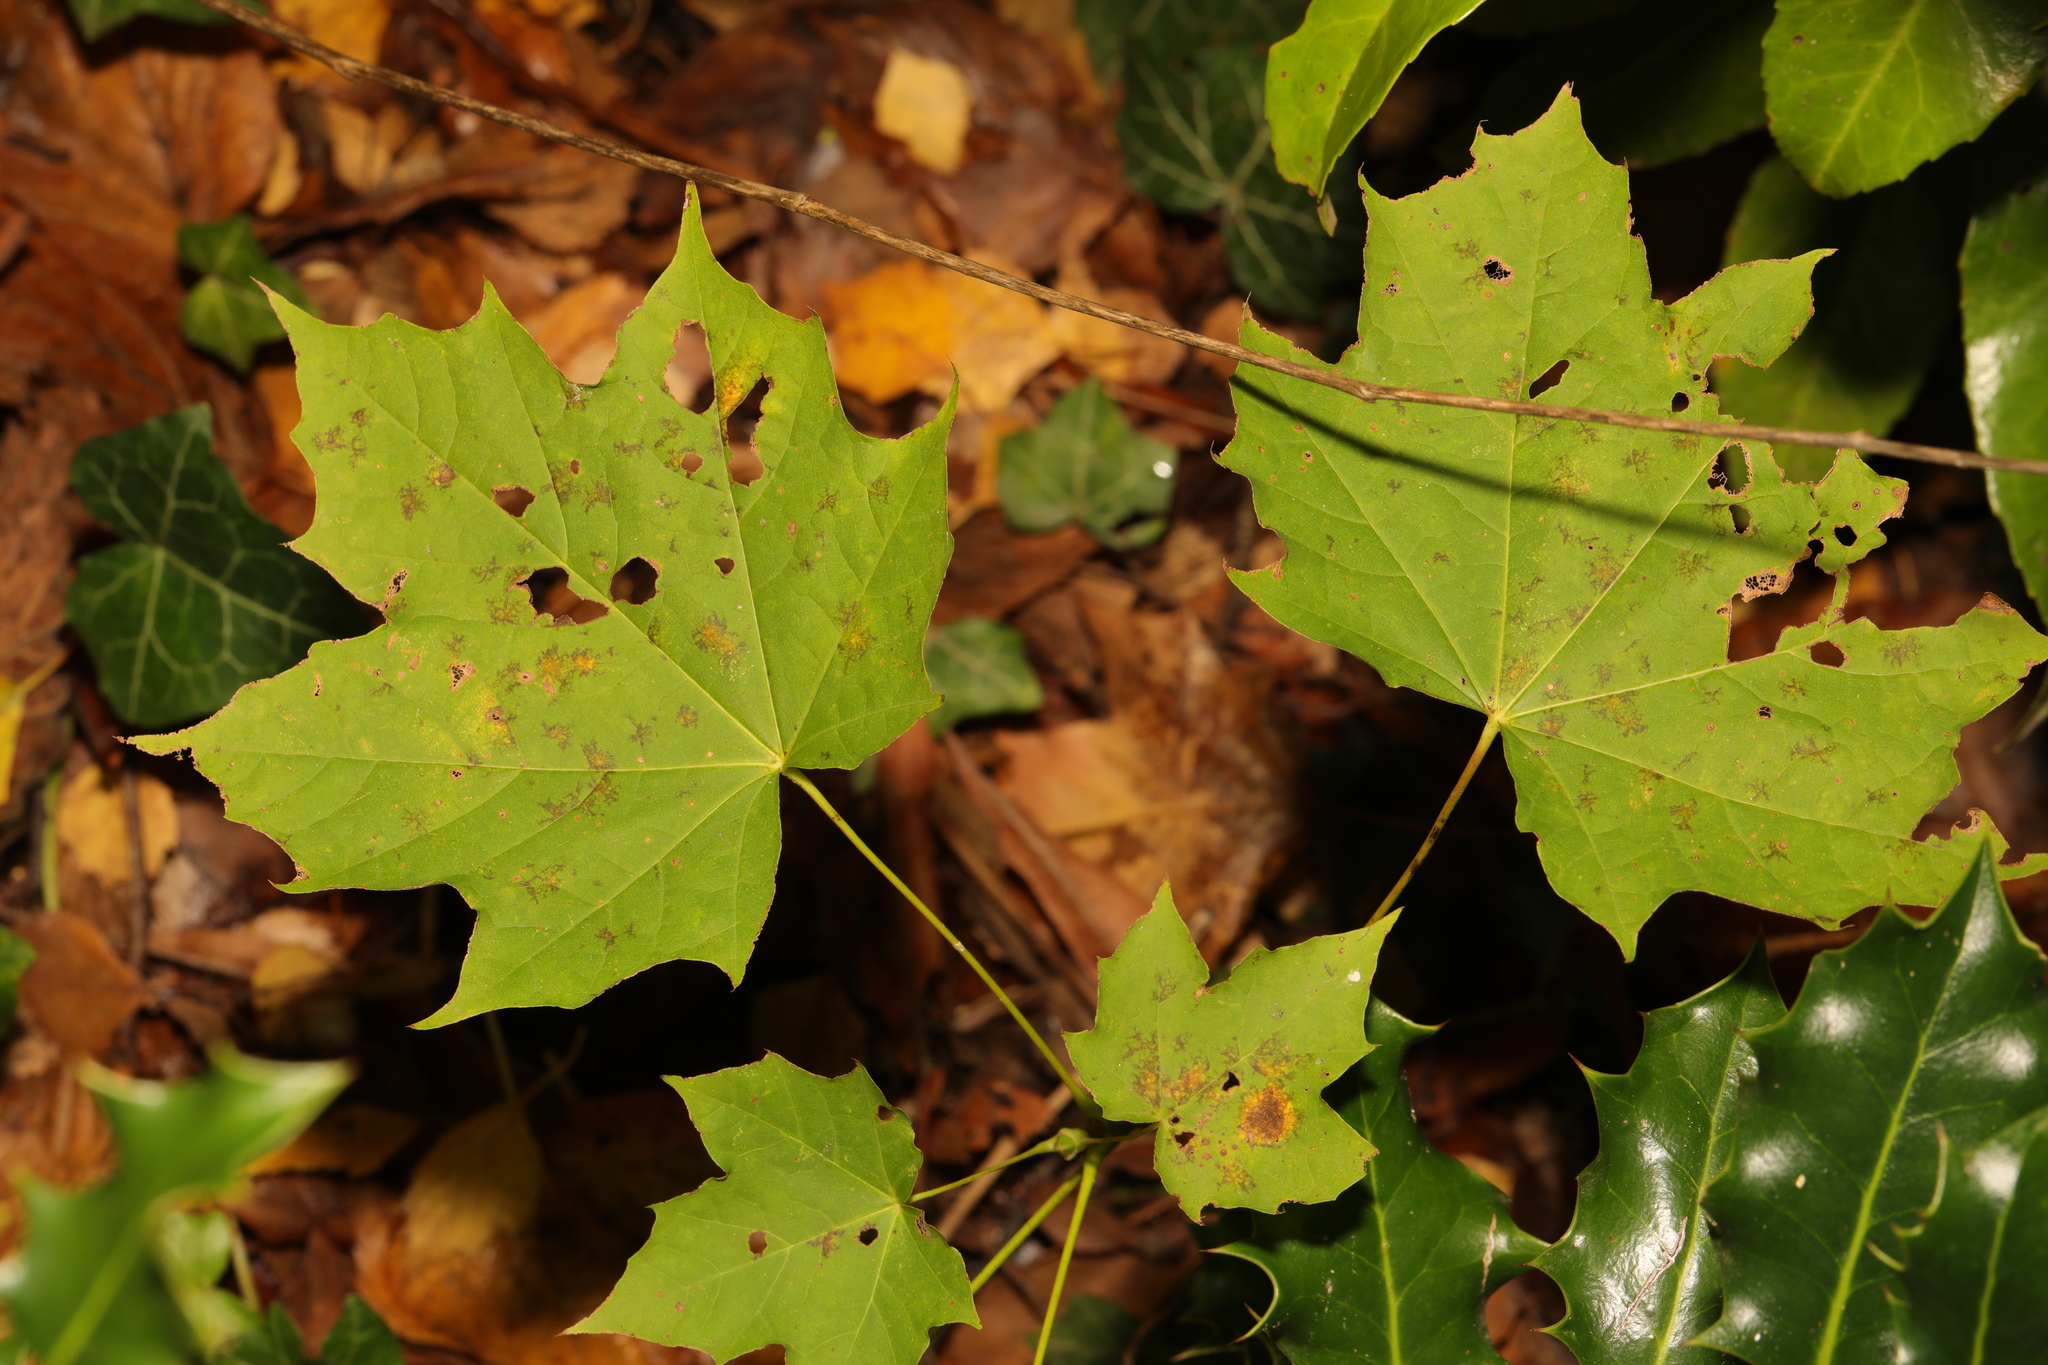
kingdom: Plantae
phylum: Tracheophyta
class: Magnoliopsida
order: Sapindales
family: Sapindaceae
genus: Acer
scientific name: Acer platanoides
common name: Norway maple
